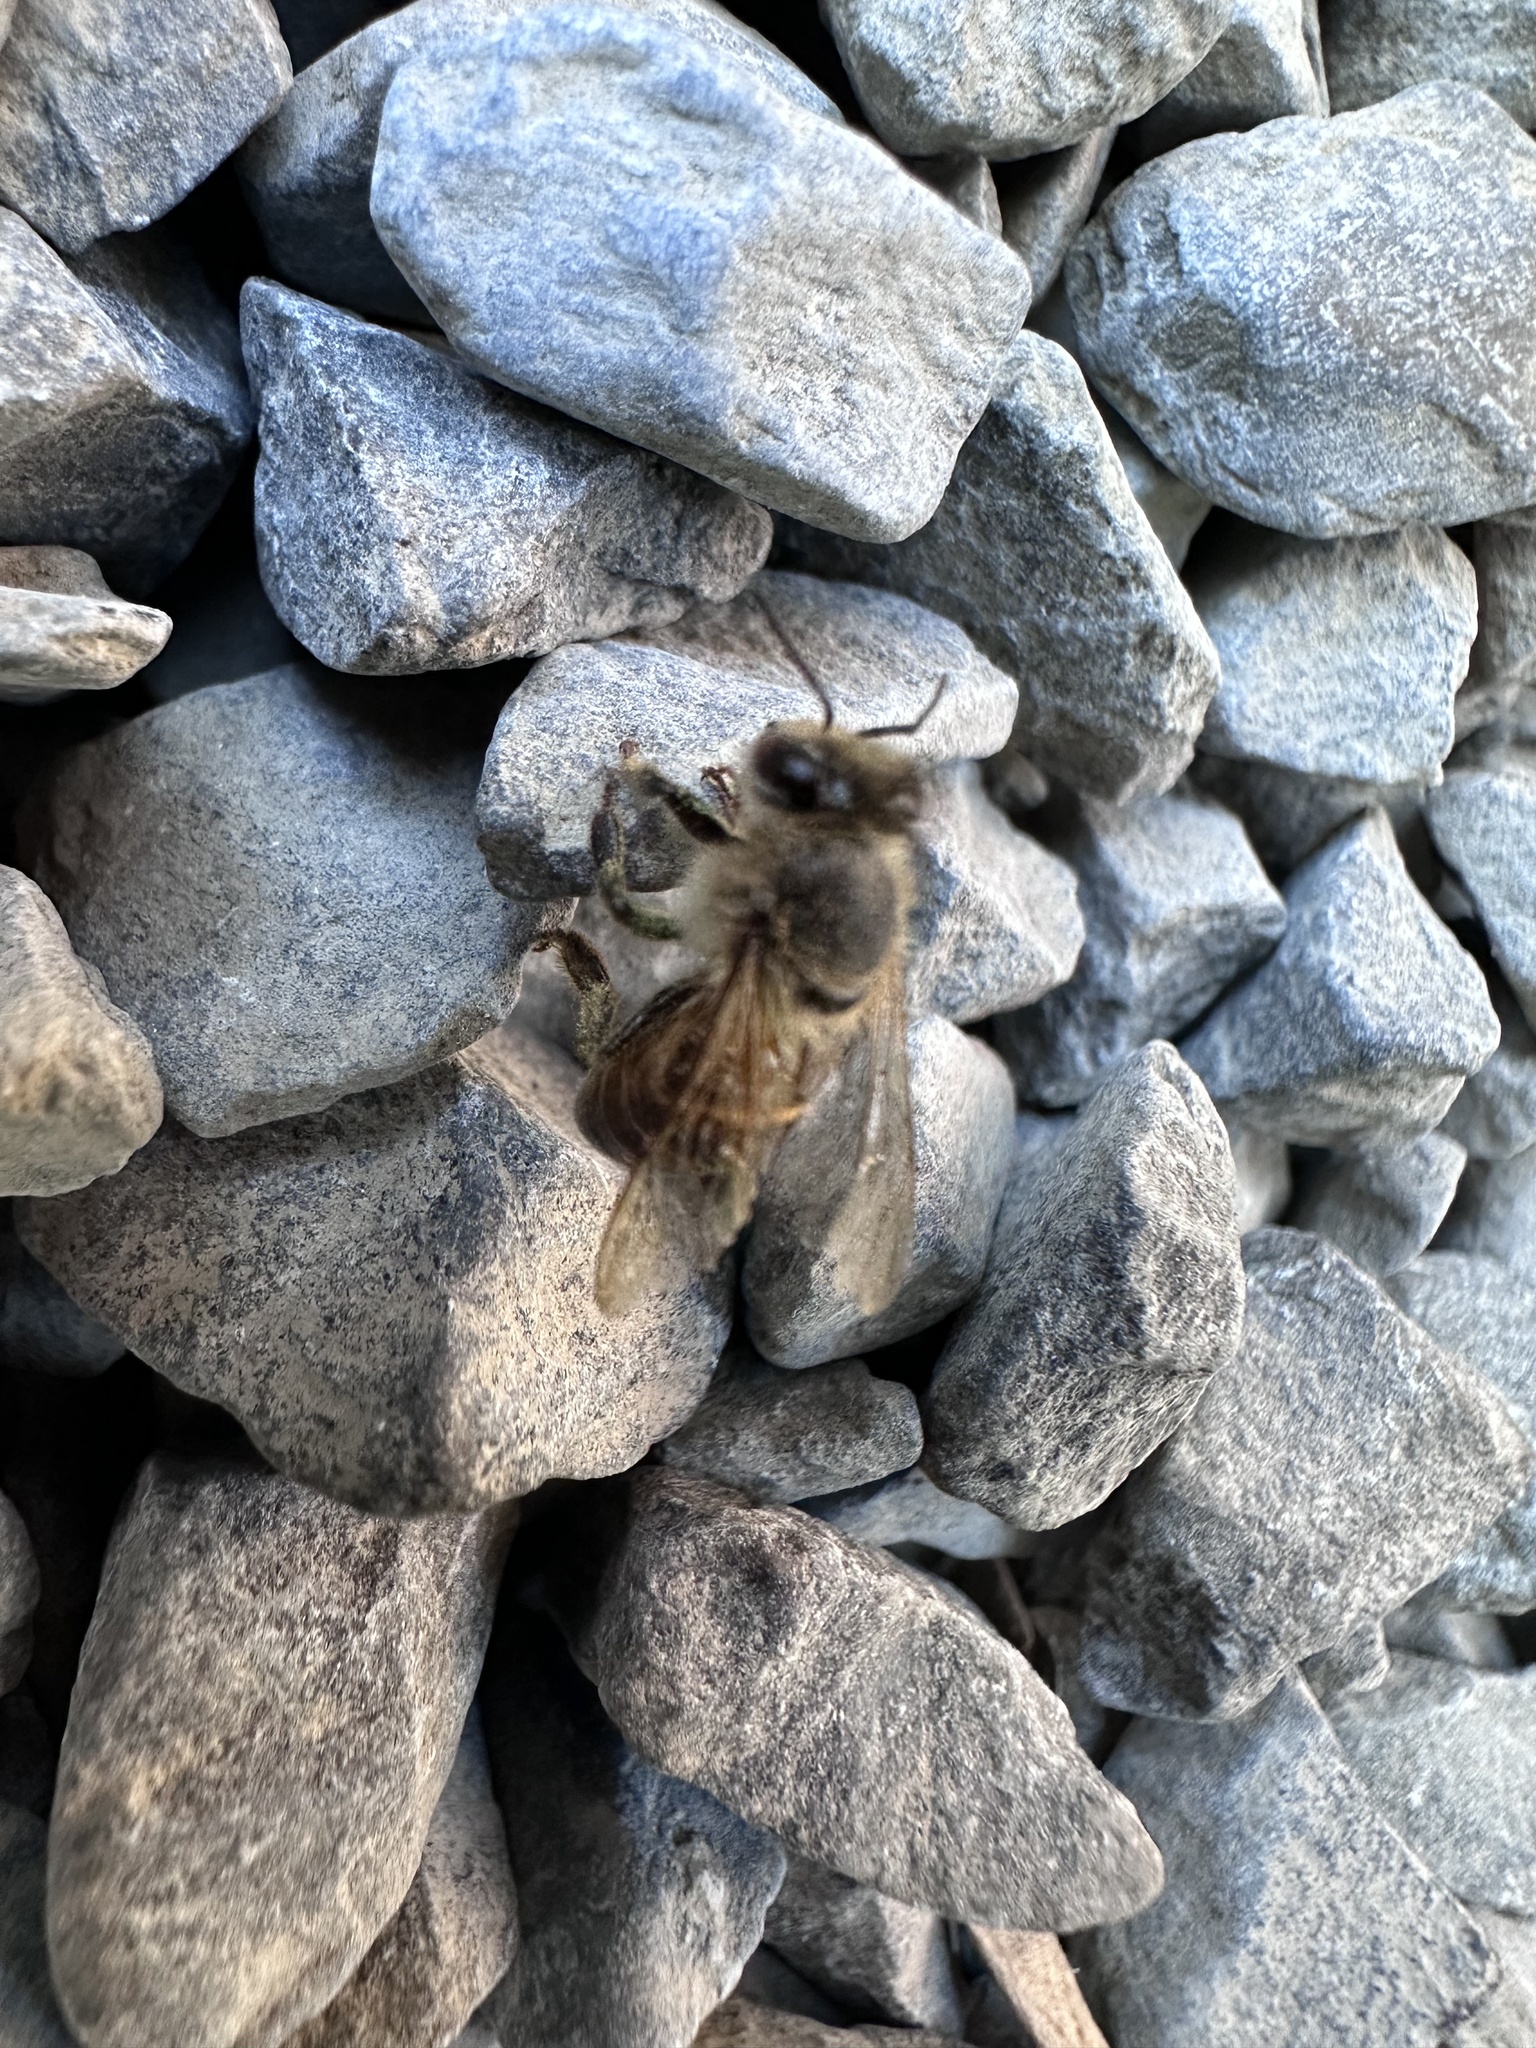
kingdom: Animalia
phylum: Arthropoda
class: Insecta
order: Hymenoptera
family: Apidae
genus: Apis
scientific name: Apis mellifera
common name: Honey bee
